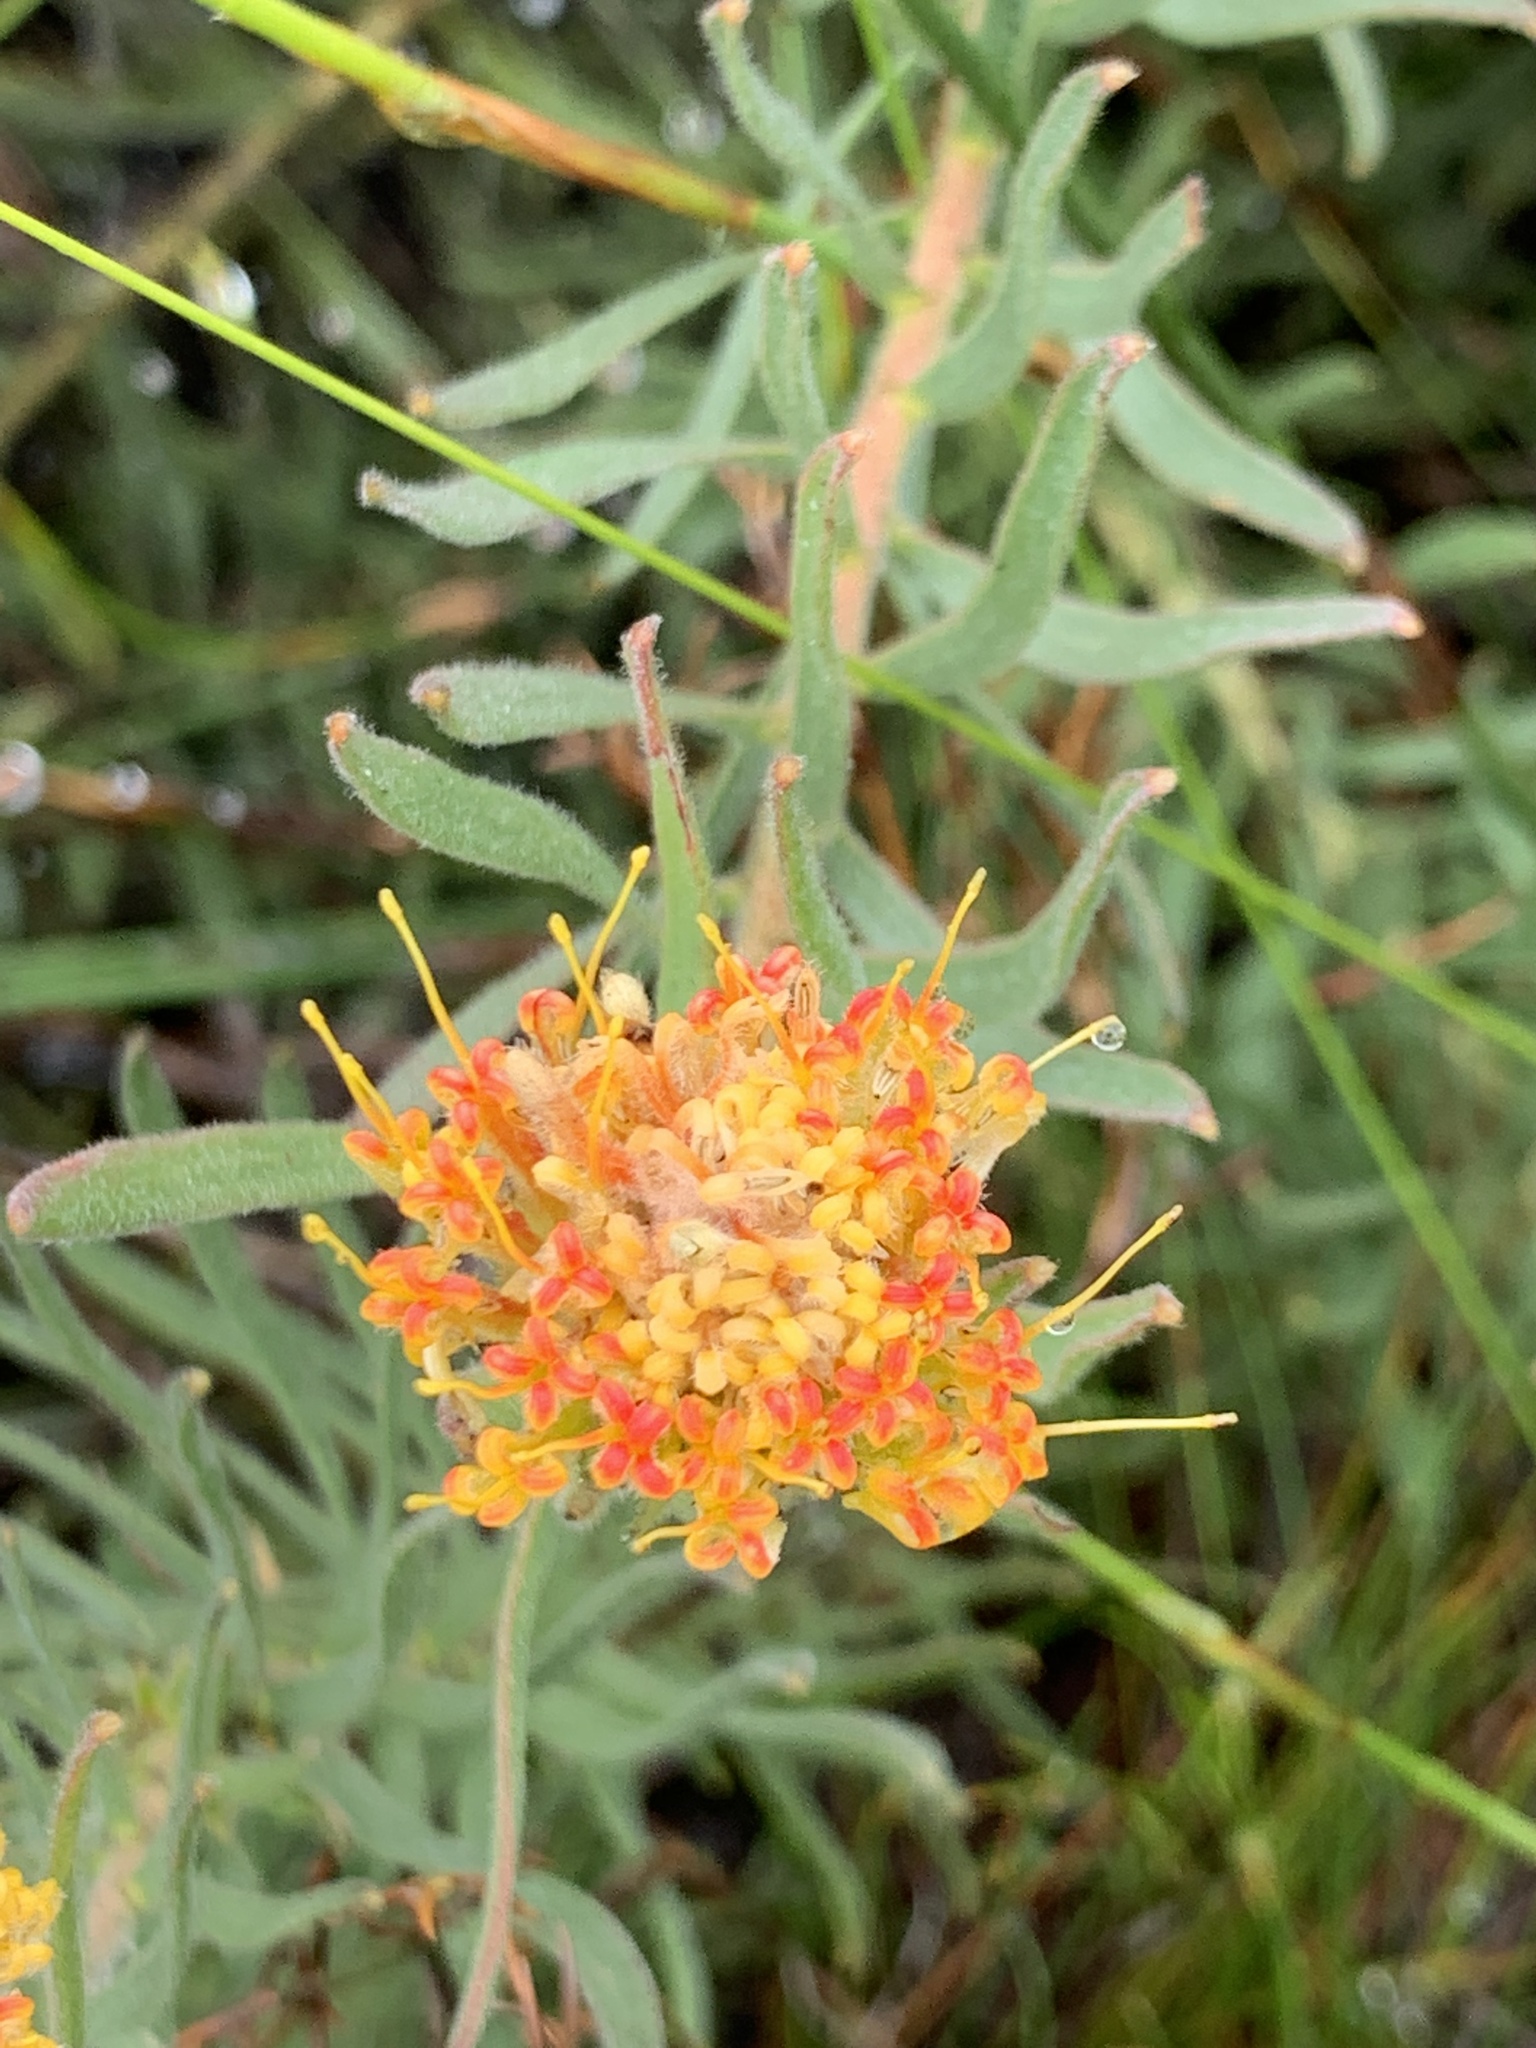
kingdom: Plantae
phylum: Tracheophyta
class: Magnoliopsida
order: Proteales
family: Proteaceae
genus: Leucospermum
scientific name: Leucospermum prostratum
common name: Yellow-trailing pincushion
